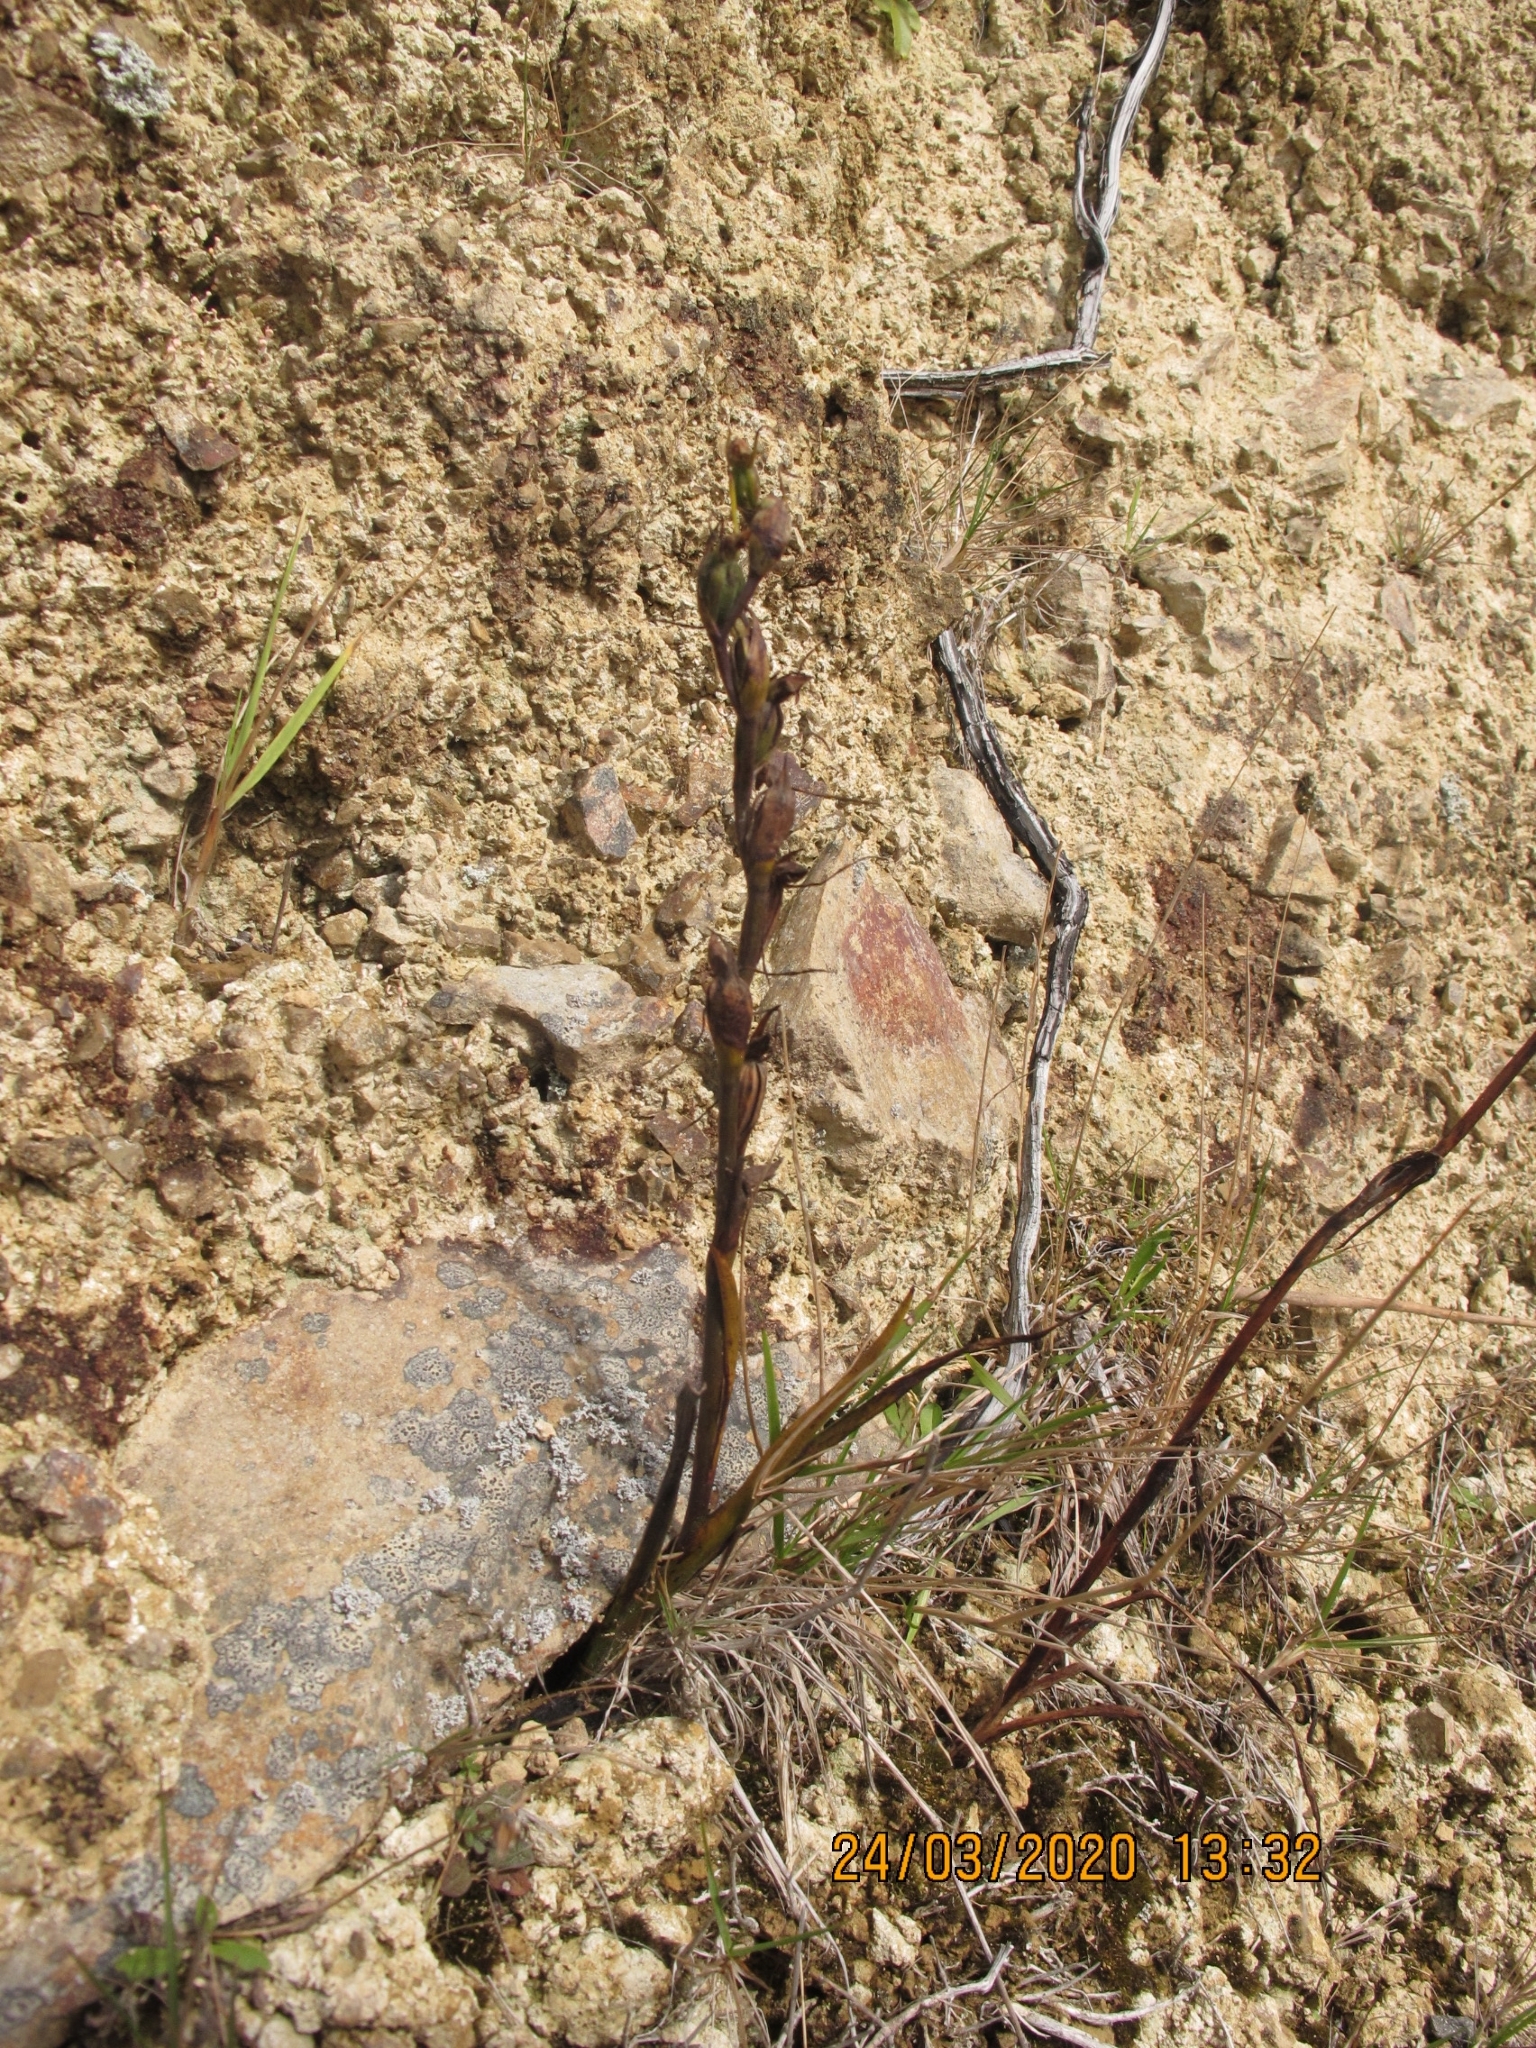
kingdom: Plantae
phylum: Tracheophyta
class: Liliopsida
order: Asparagales
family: Orchidaceae
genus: Orthoceras
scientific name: Orthoceras novae-zeelandiae
